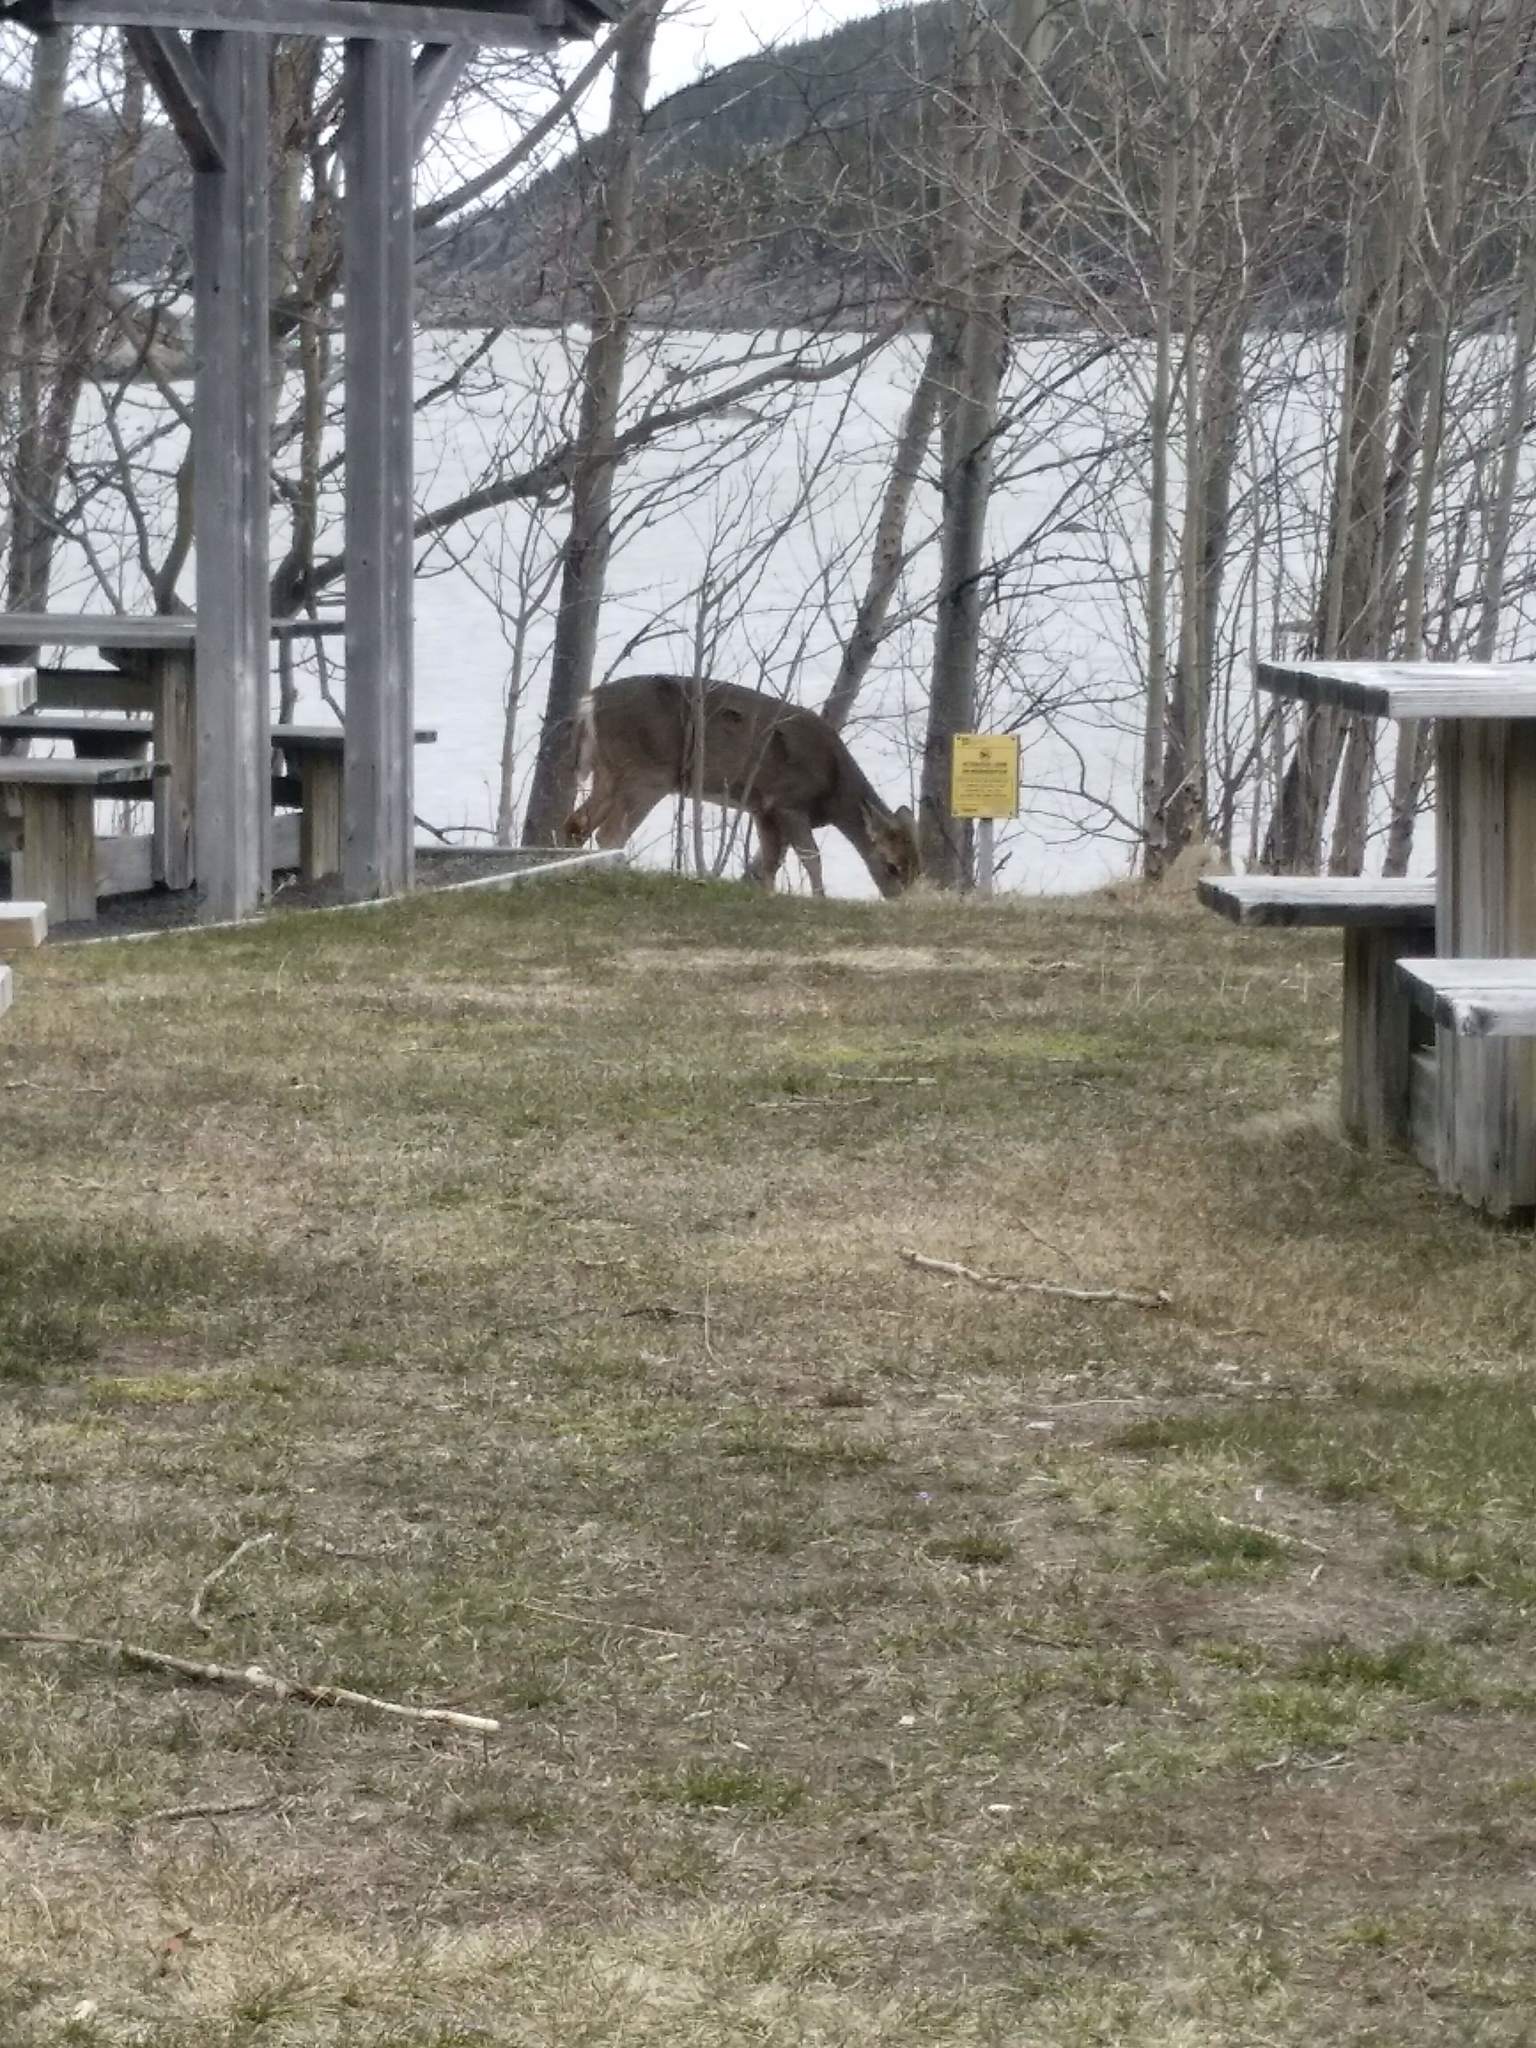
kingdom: Animalia
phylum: Chordata
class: Mammalia
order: Artiodactyla
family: Cervidae
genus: Odocoileus
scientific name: Odocoileus virginianus
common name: White-tailed deer
